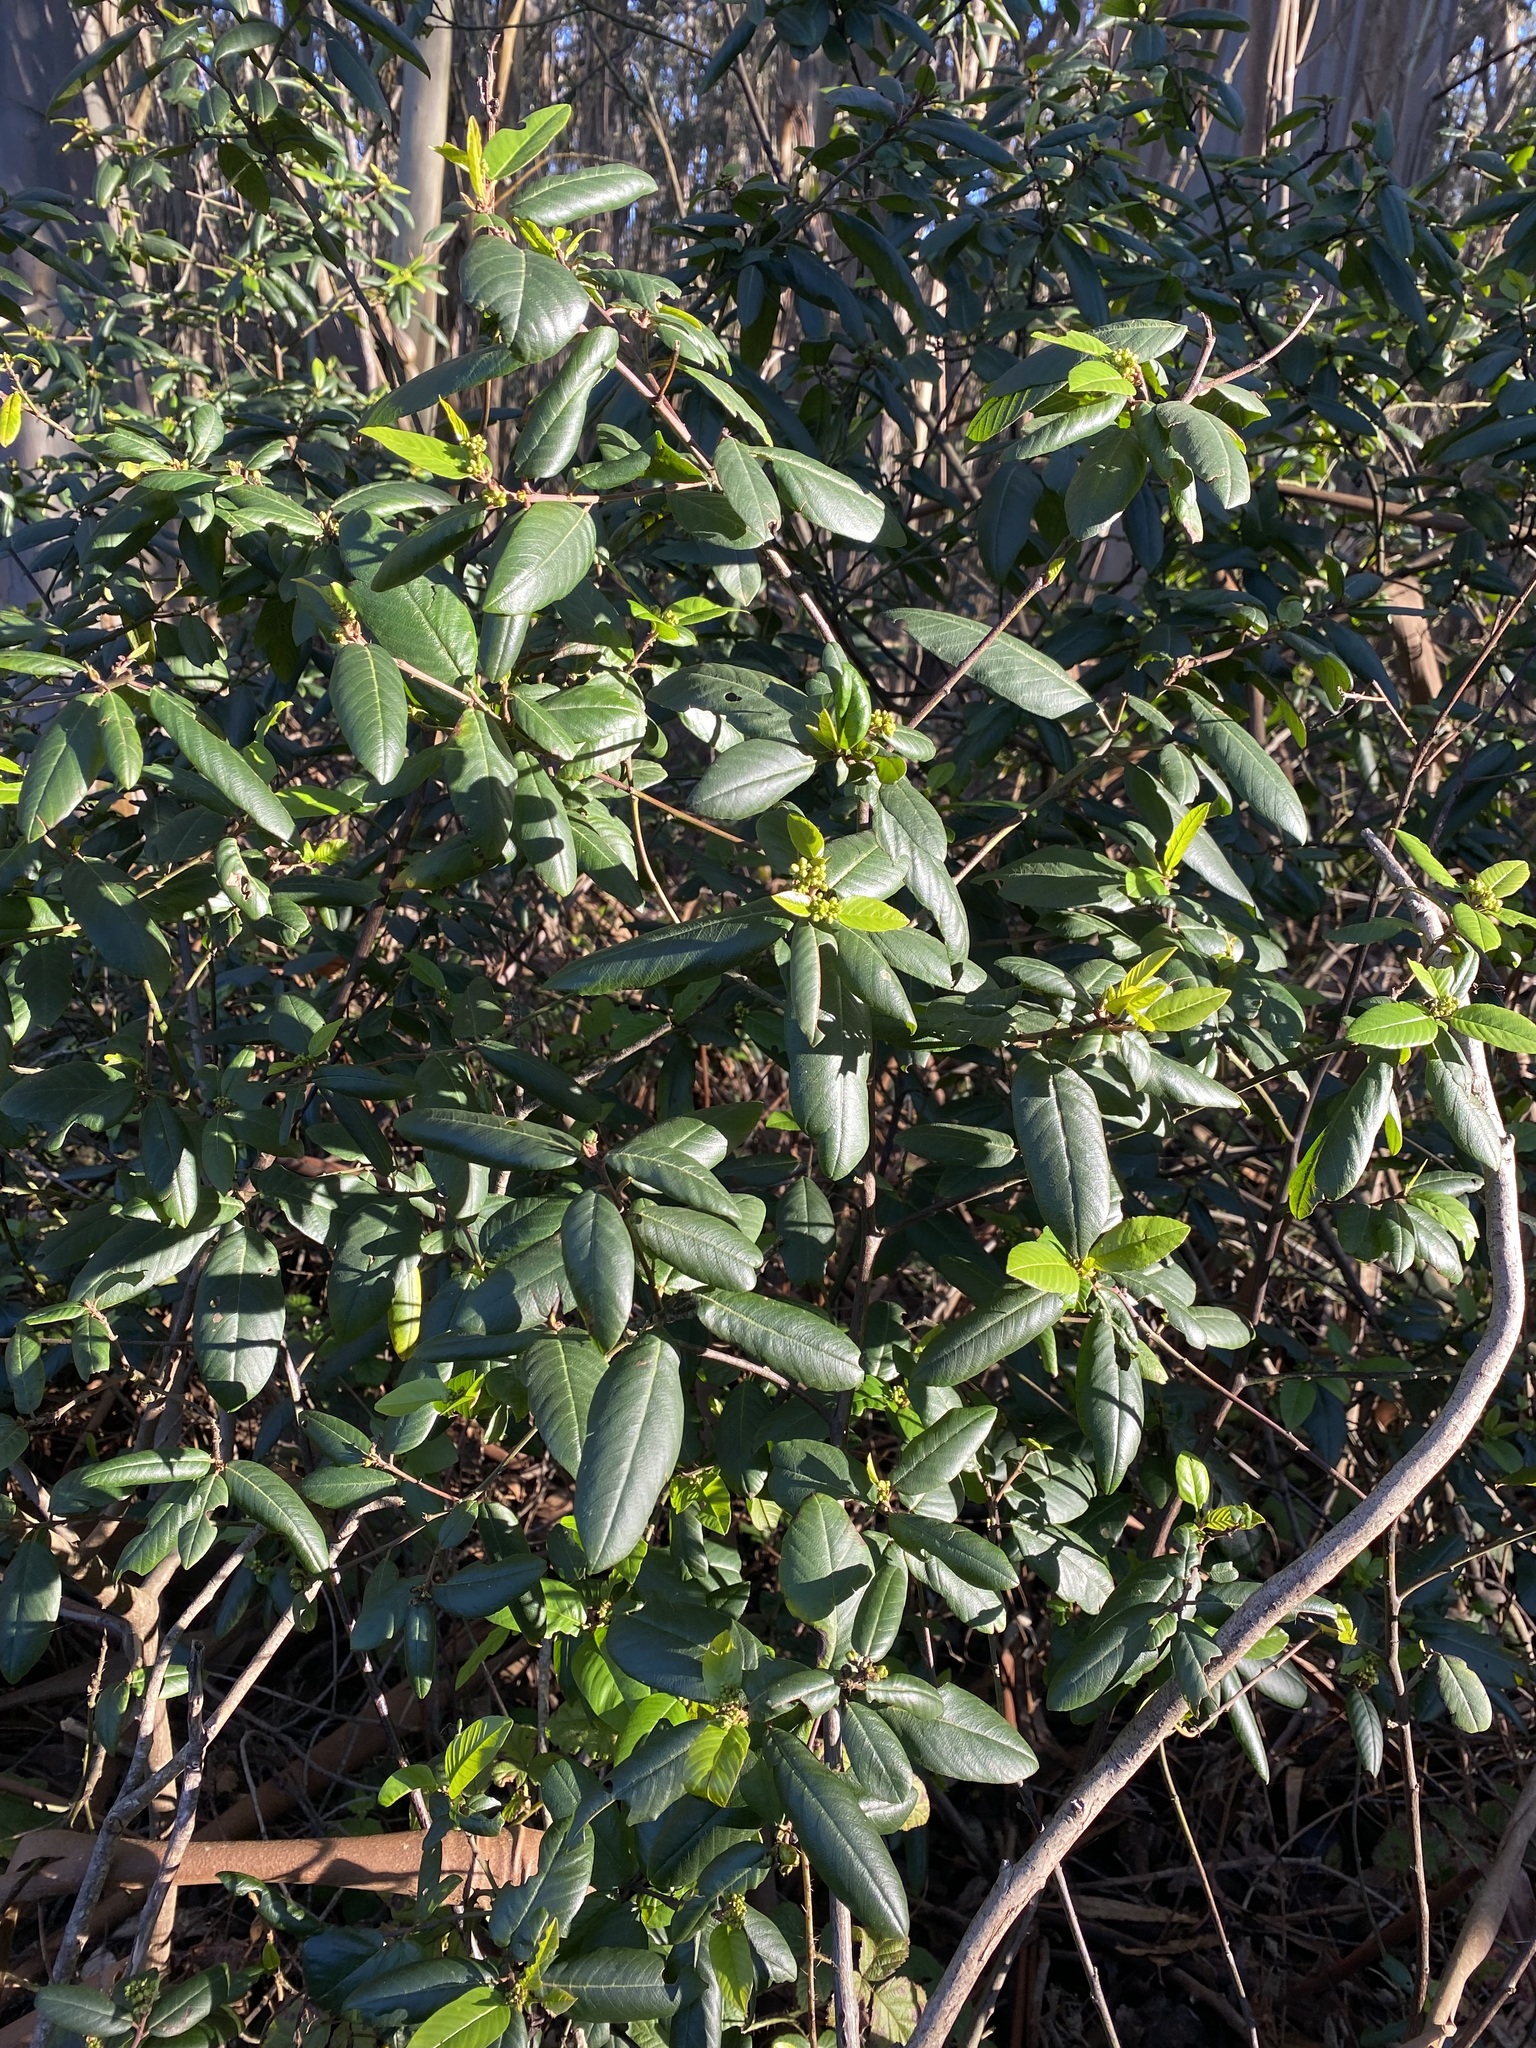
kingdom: Plantae
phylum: Tracheophyta
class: Magnoliopsida
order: Rosales
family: Rhamnaceae
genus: Frangula
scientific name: Frangula californica
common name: California buckthorn
